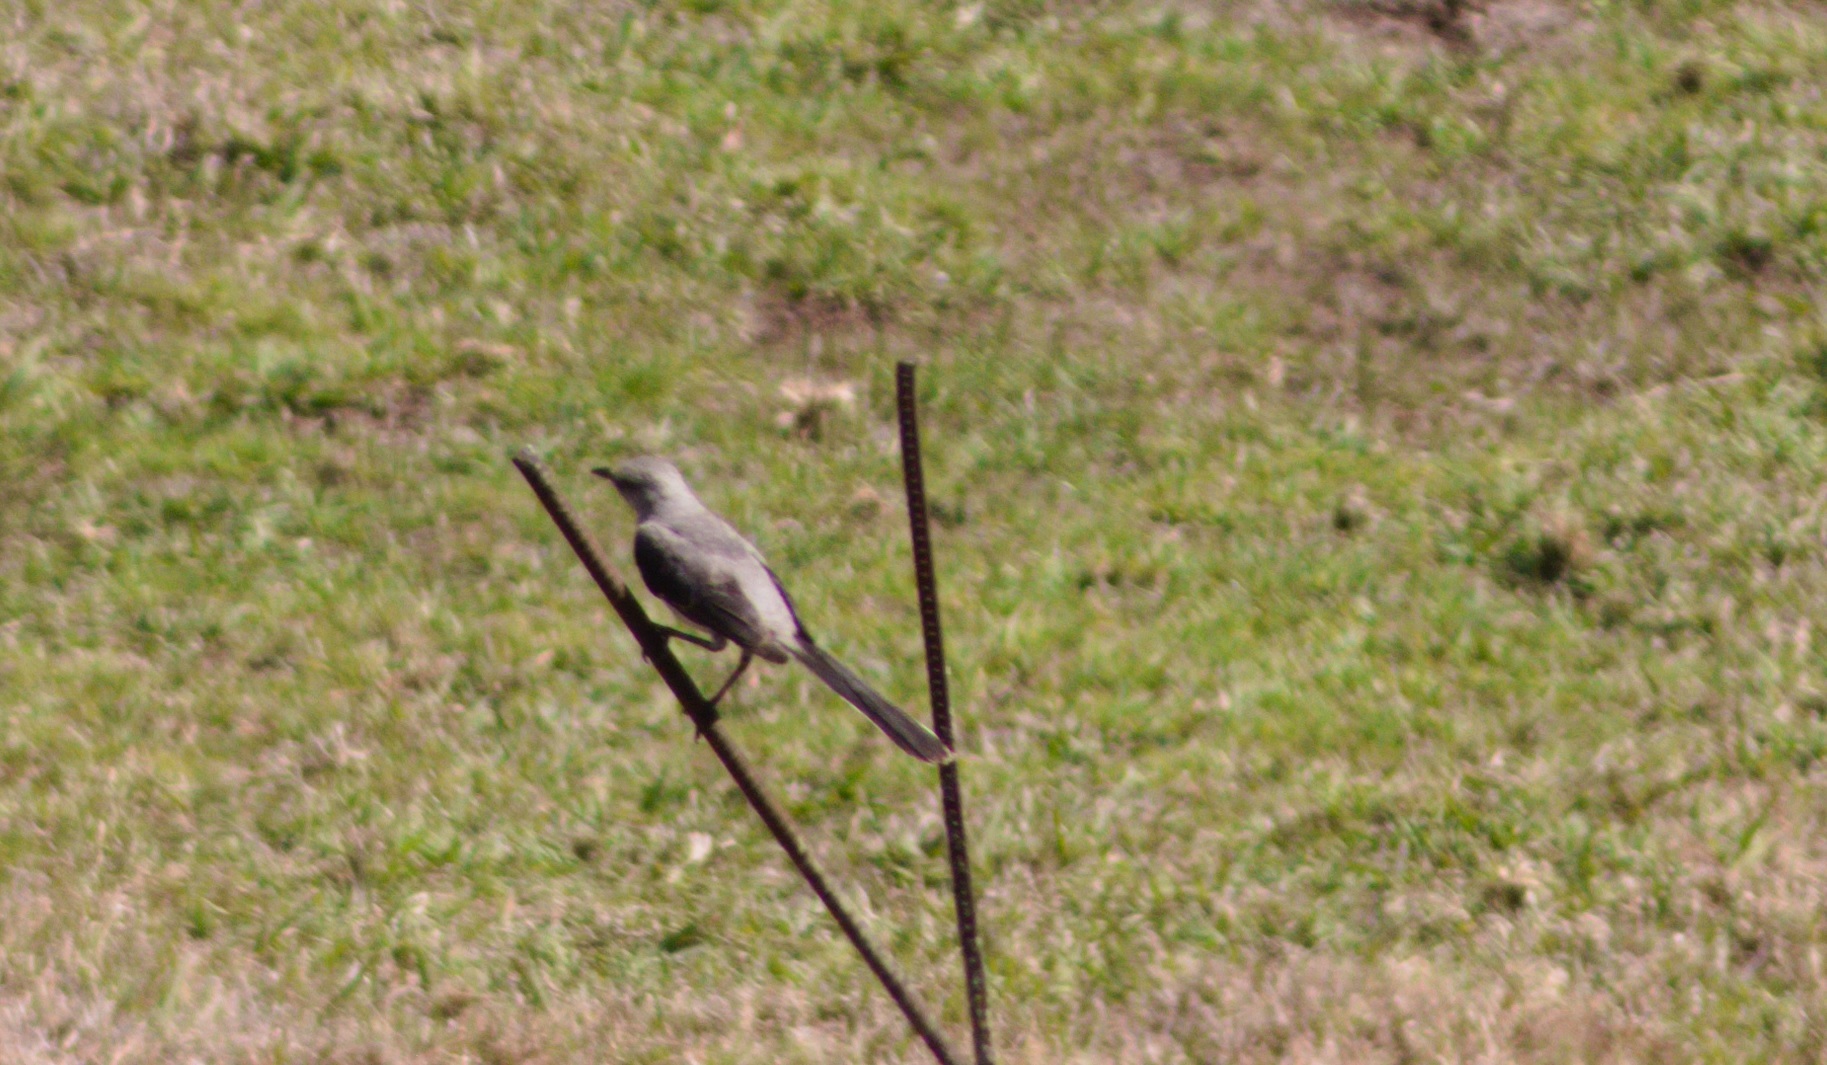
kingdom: Animalia
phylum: Chordata
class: Aves
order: Passeriformes
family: Mimidae
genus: Mimus
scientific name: Mimus gilvus
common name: Tropical mockingbird
